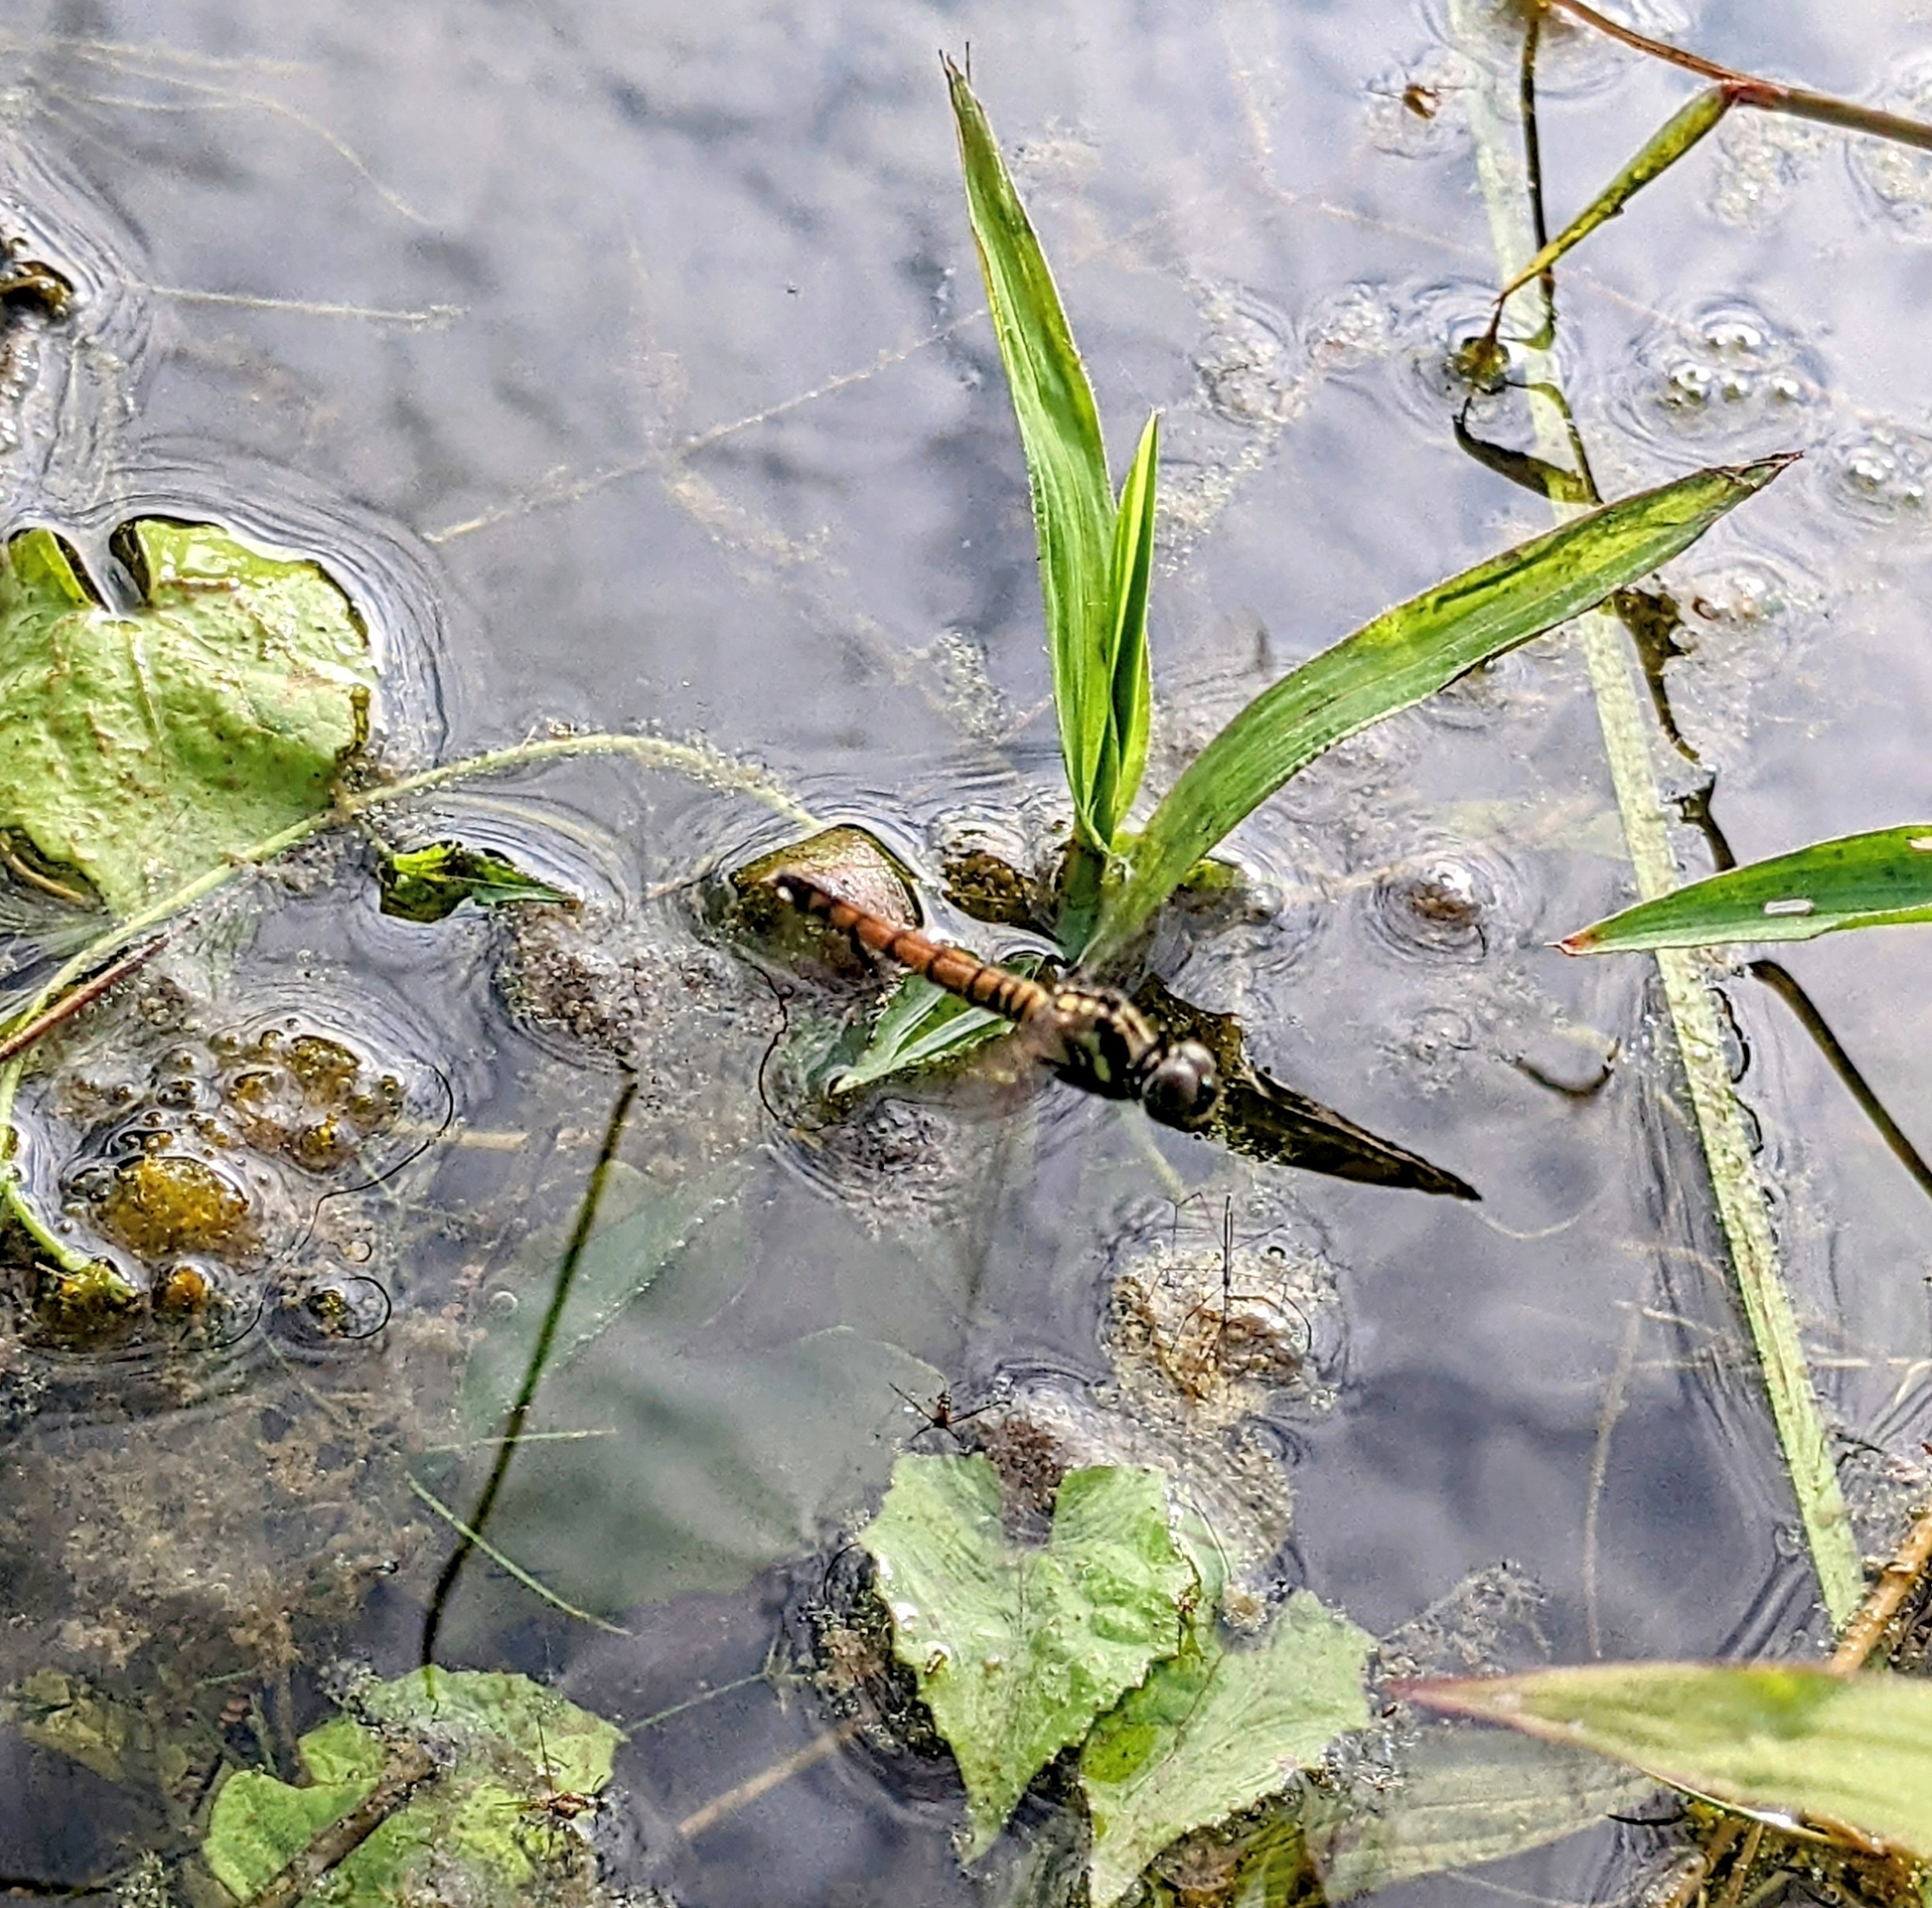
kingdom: Animalia
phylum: Arthropoda
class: Insecta
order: Odonata
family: Libellulidae
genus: Brachydiplax
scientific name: Brachydiplax farinosa
